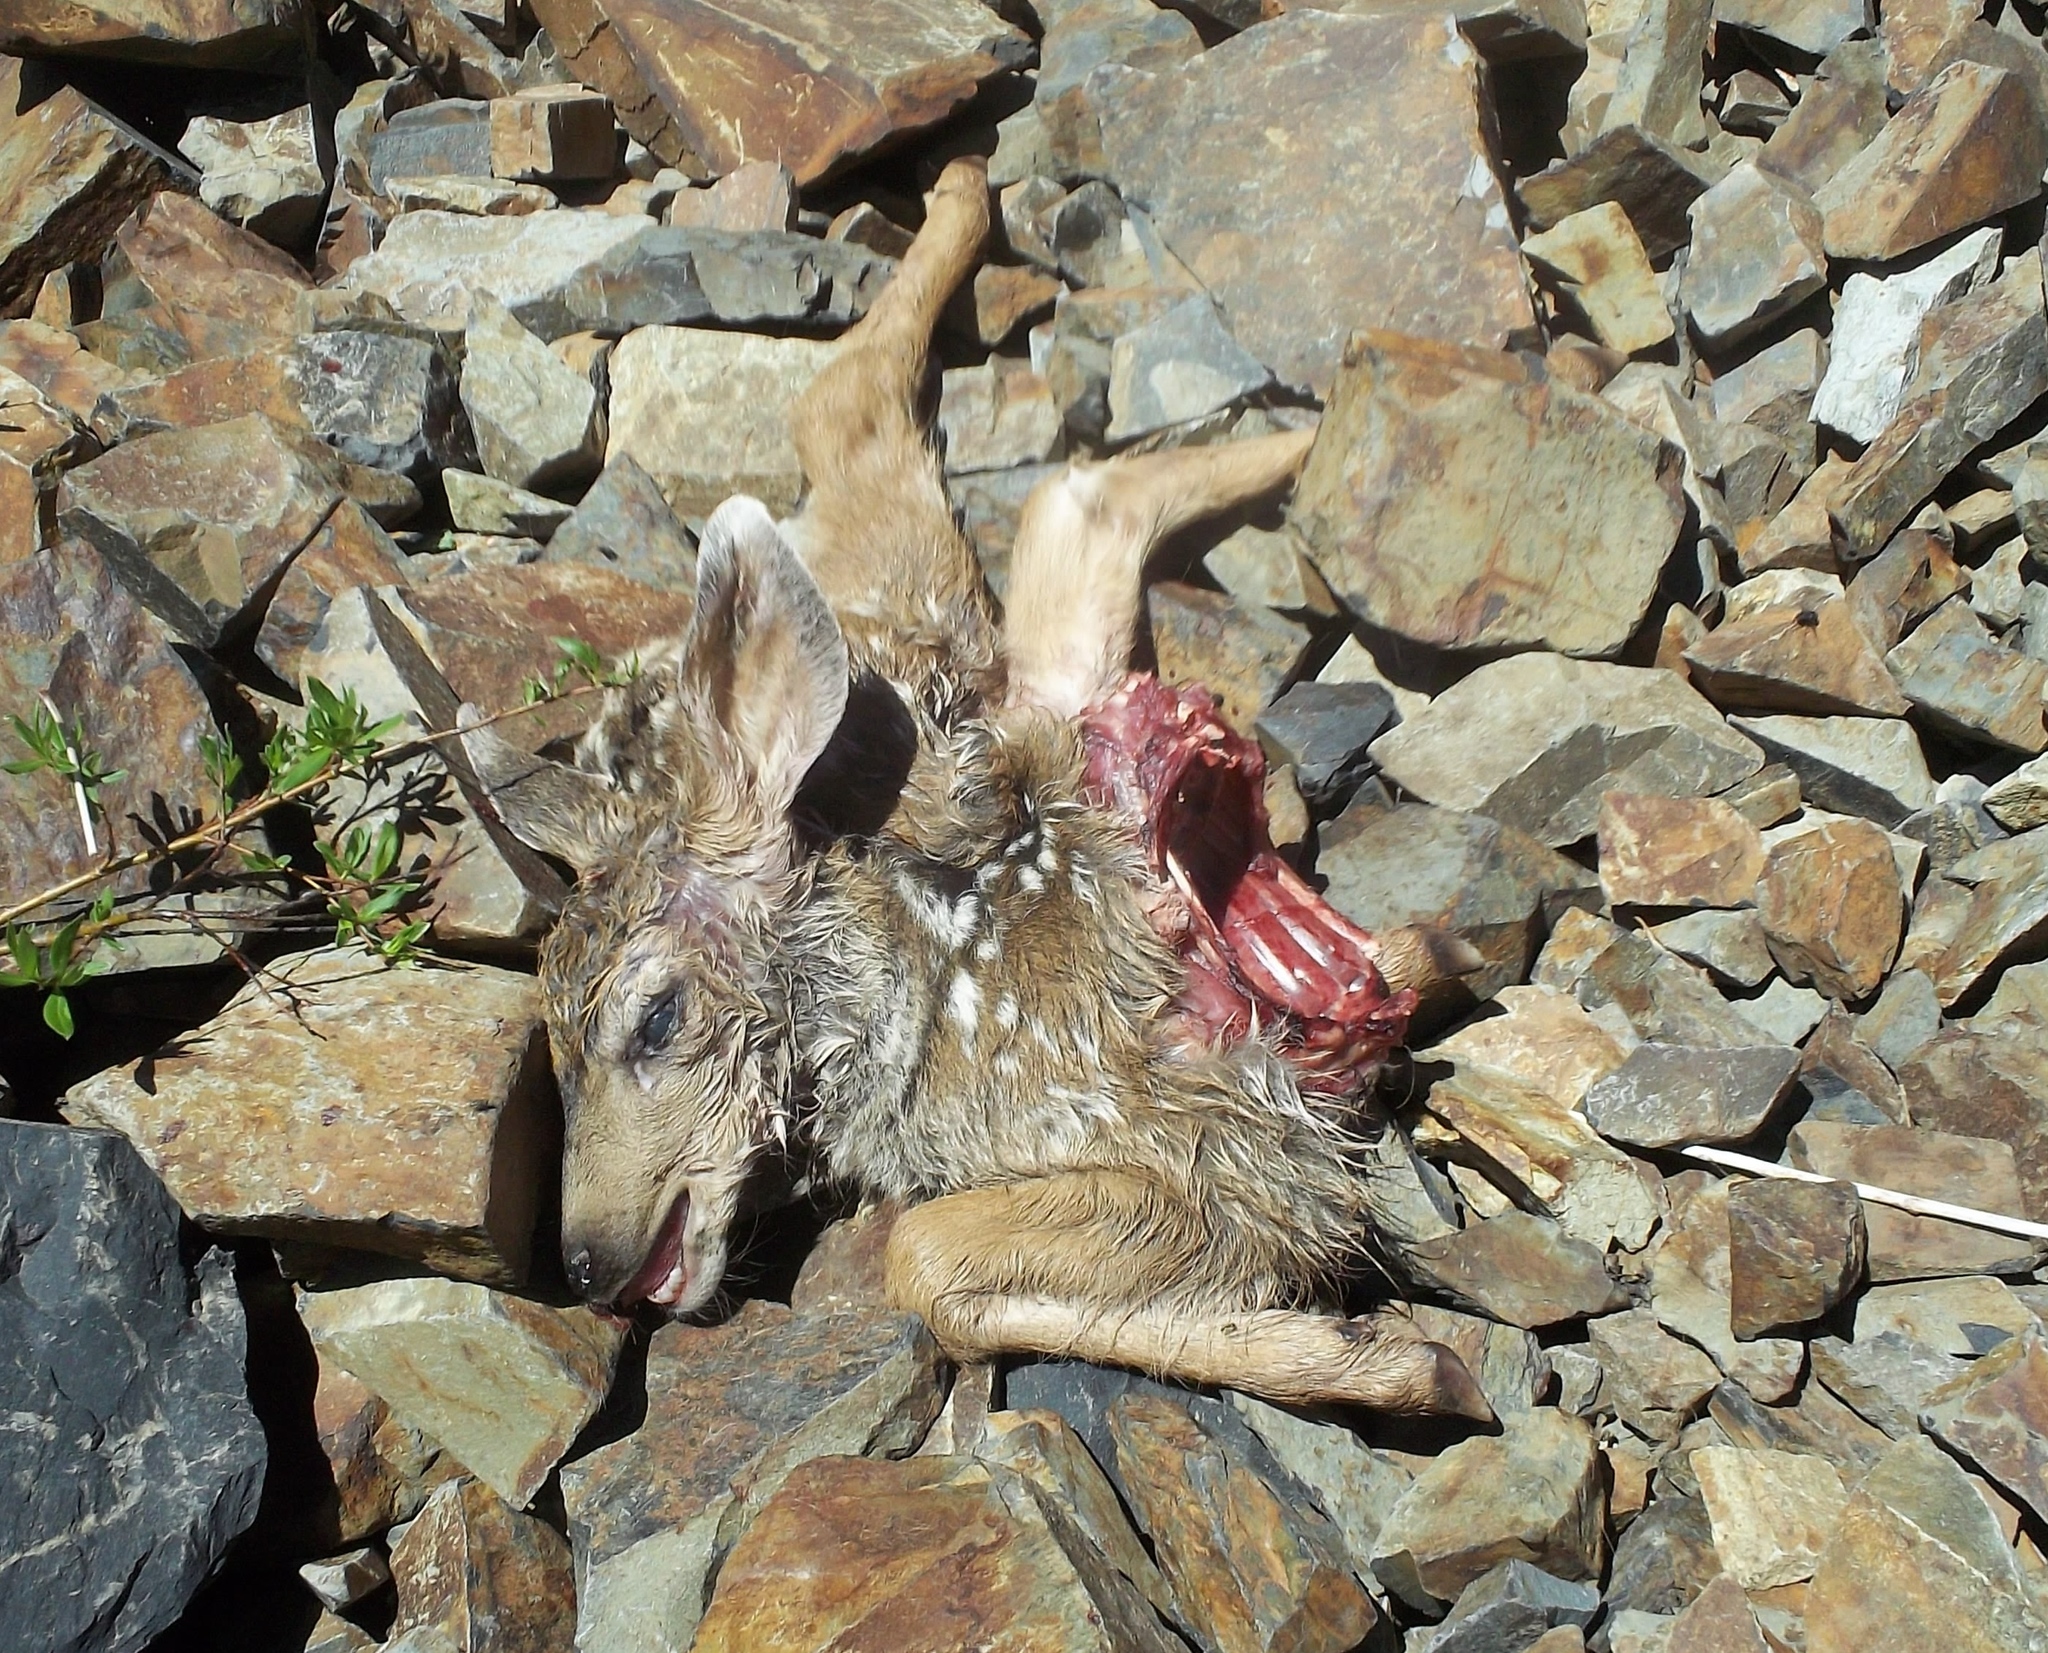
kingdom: Animalia
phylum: Chordata
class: Mammalia
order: Artiodactyla
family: Cervidae
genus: Odocoileus
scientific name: Odocoileus hemionus
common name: Mule deer
